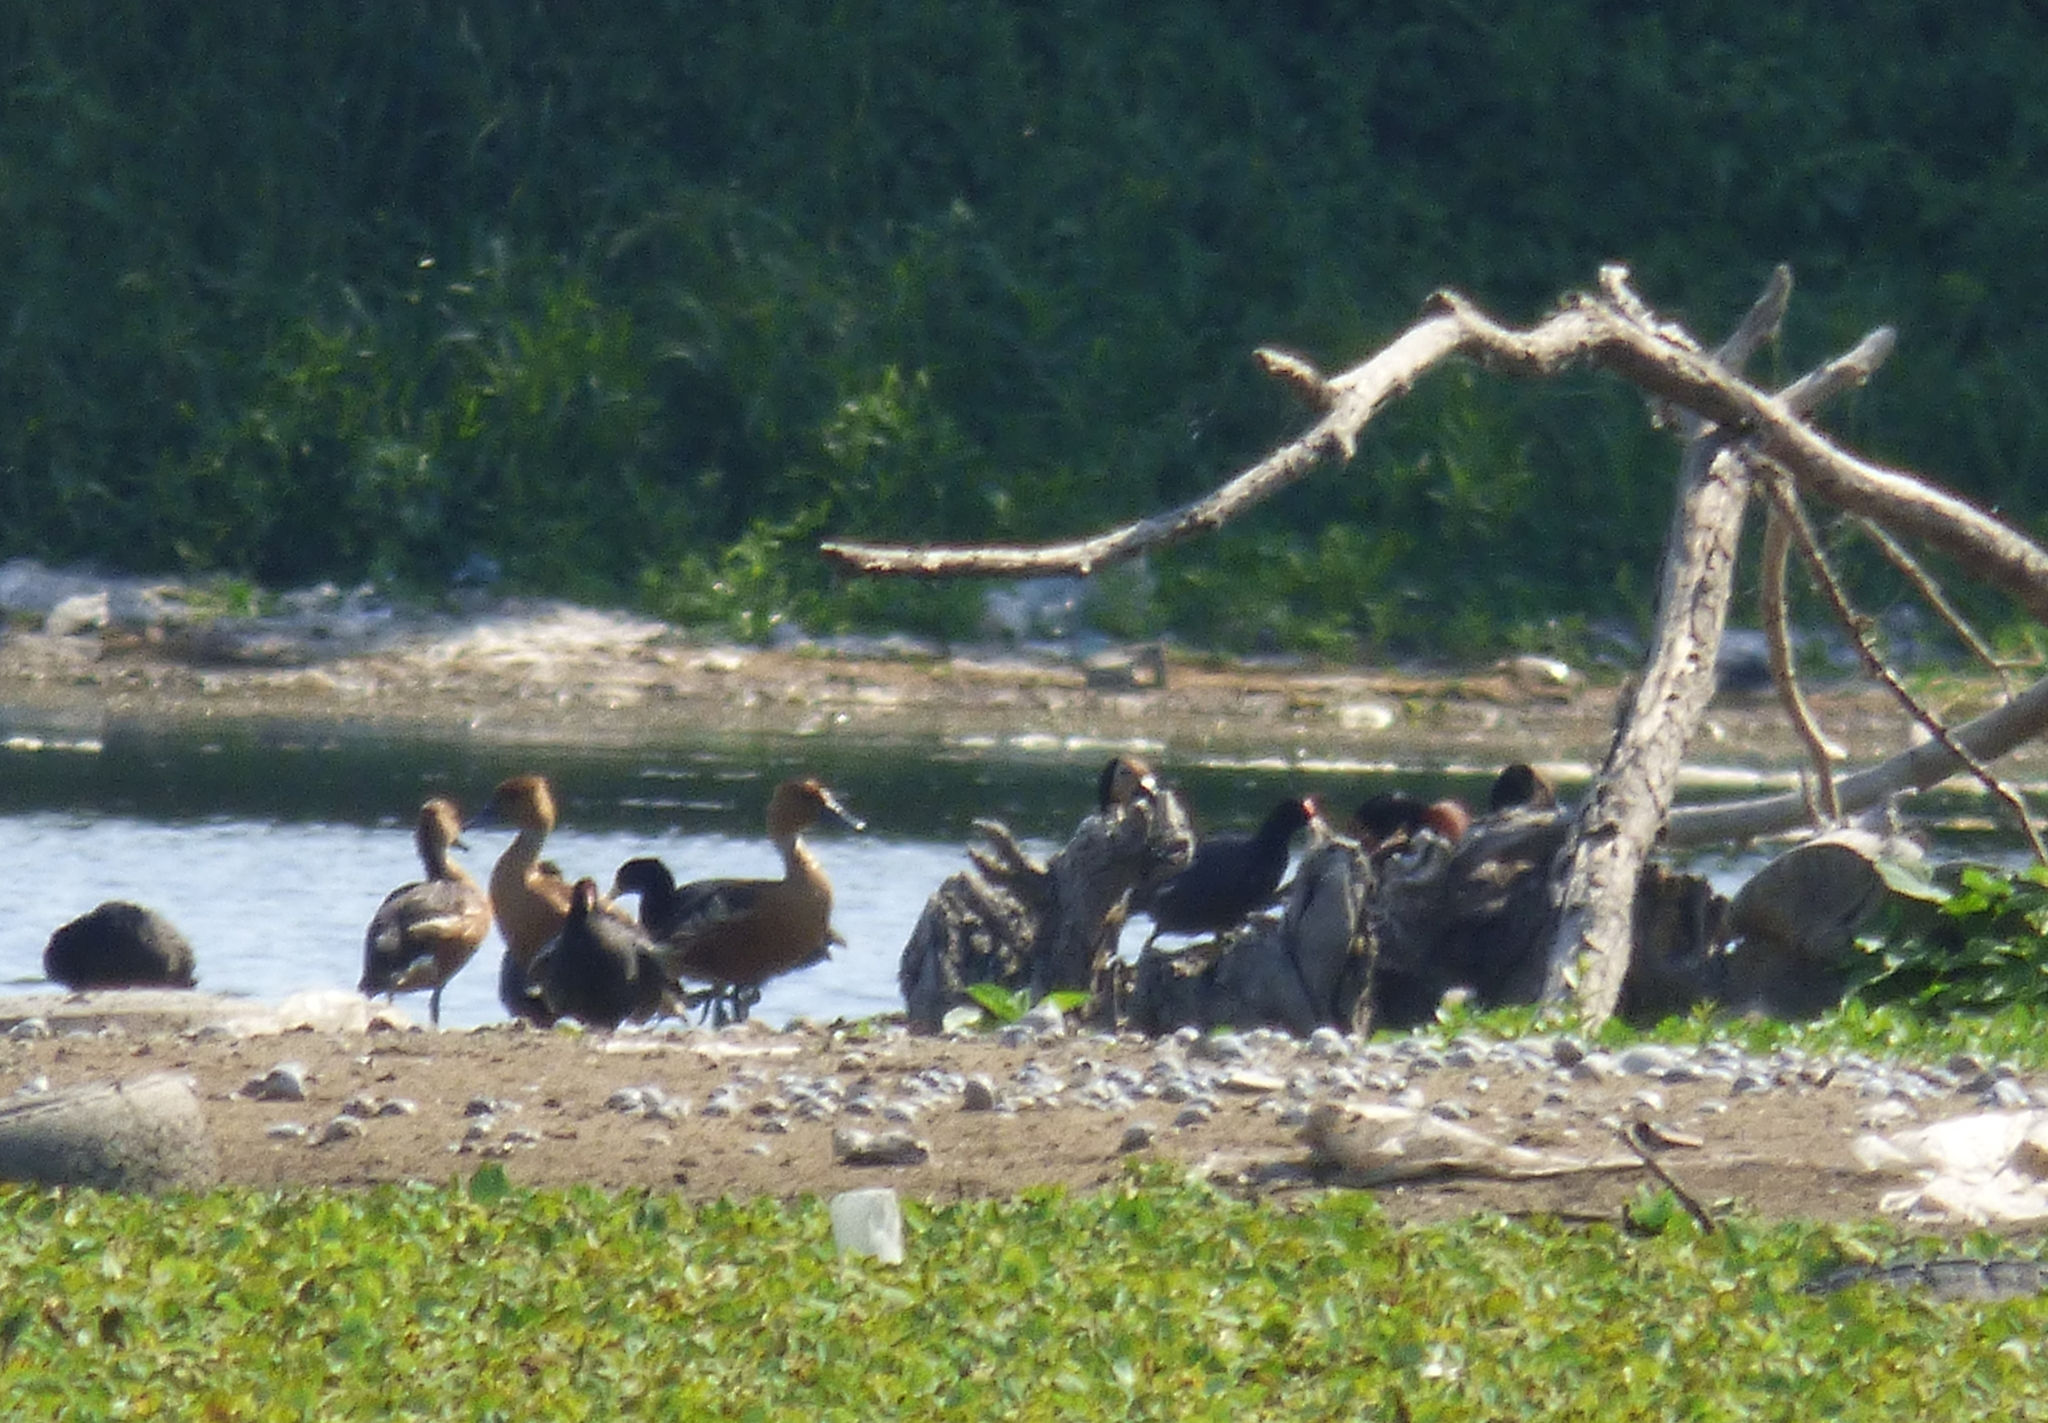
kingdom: Animalia
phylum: Chordata
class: Aves
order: Anseriformes
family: Anatidae
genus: Dendrocygna
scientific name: Dendrocygna bicolor
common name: Fulvous whistling duck
